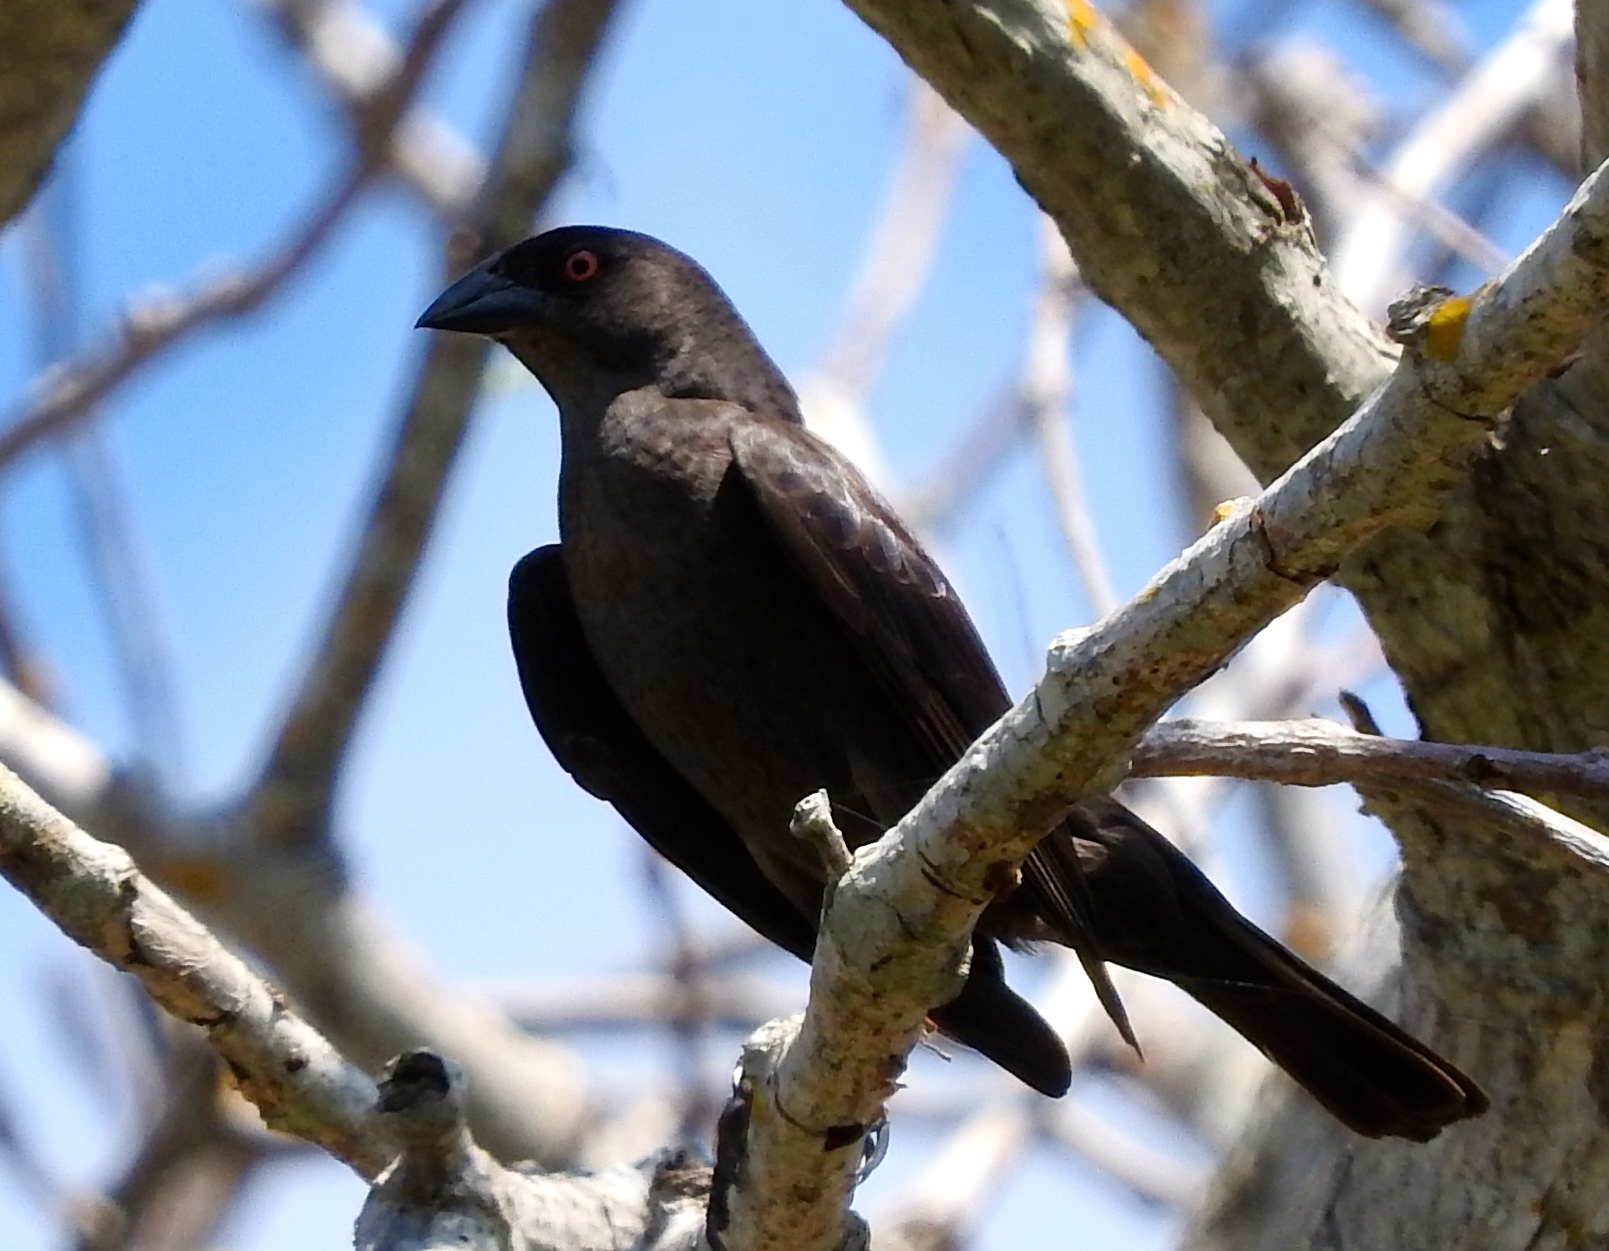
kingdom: Animalia
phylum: Chordata
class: Aves
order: Passeriformes
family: Icteridae
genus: Molothrus
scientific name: Molothrus aeneus
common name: Bronzed cowbird
